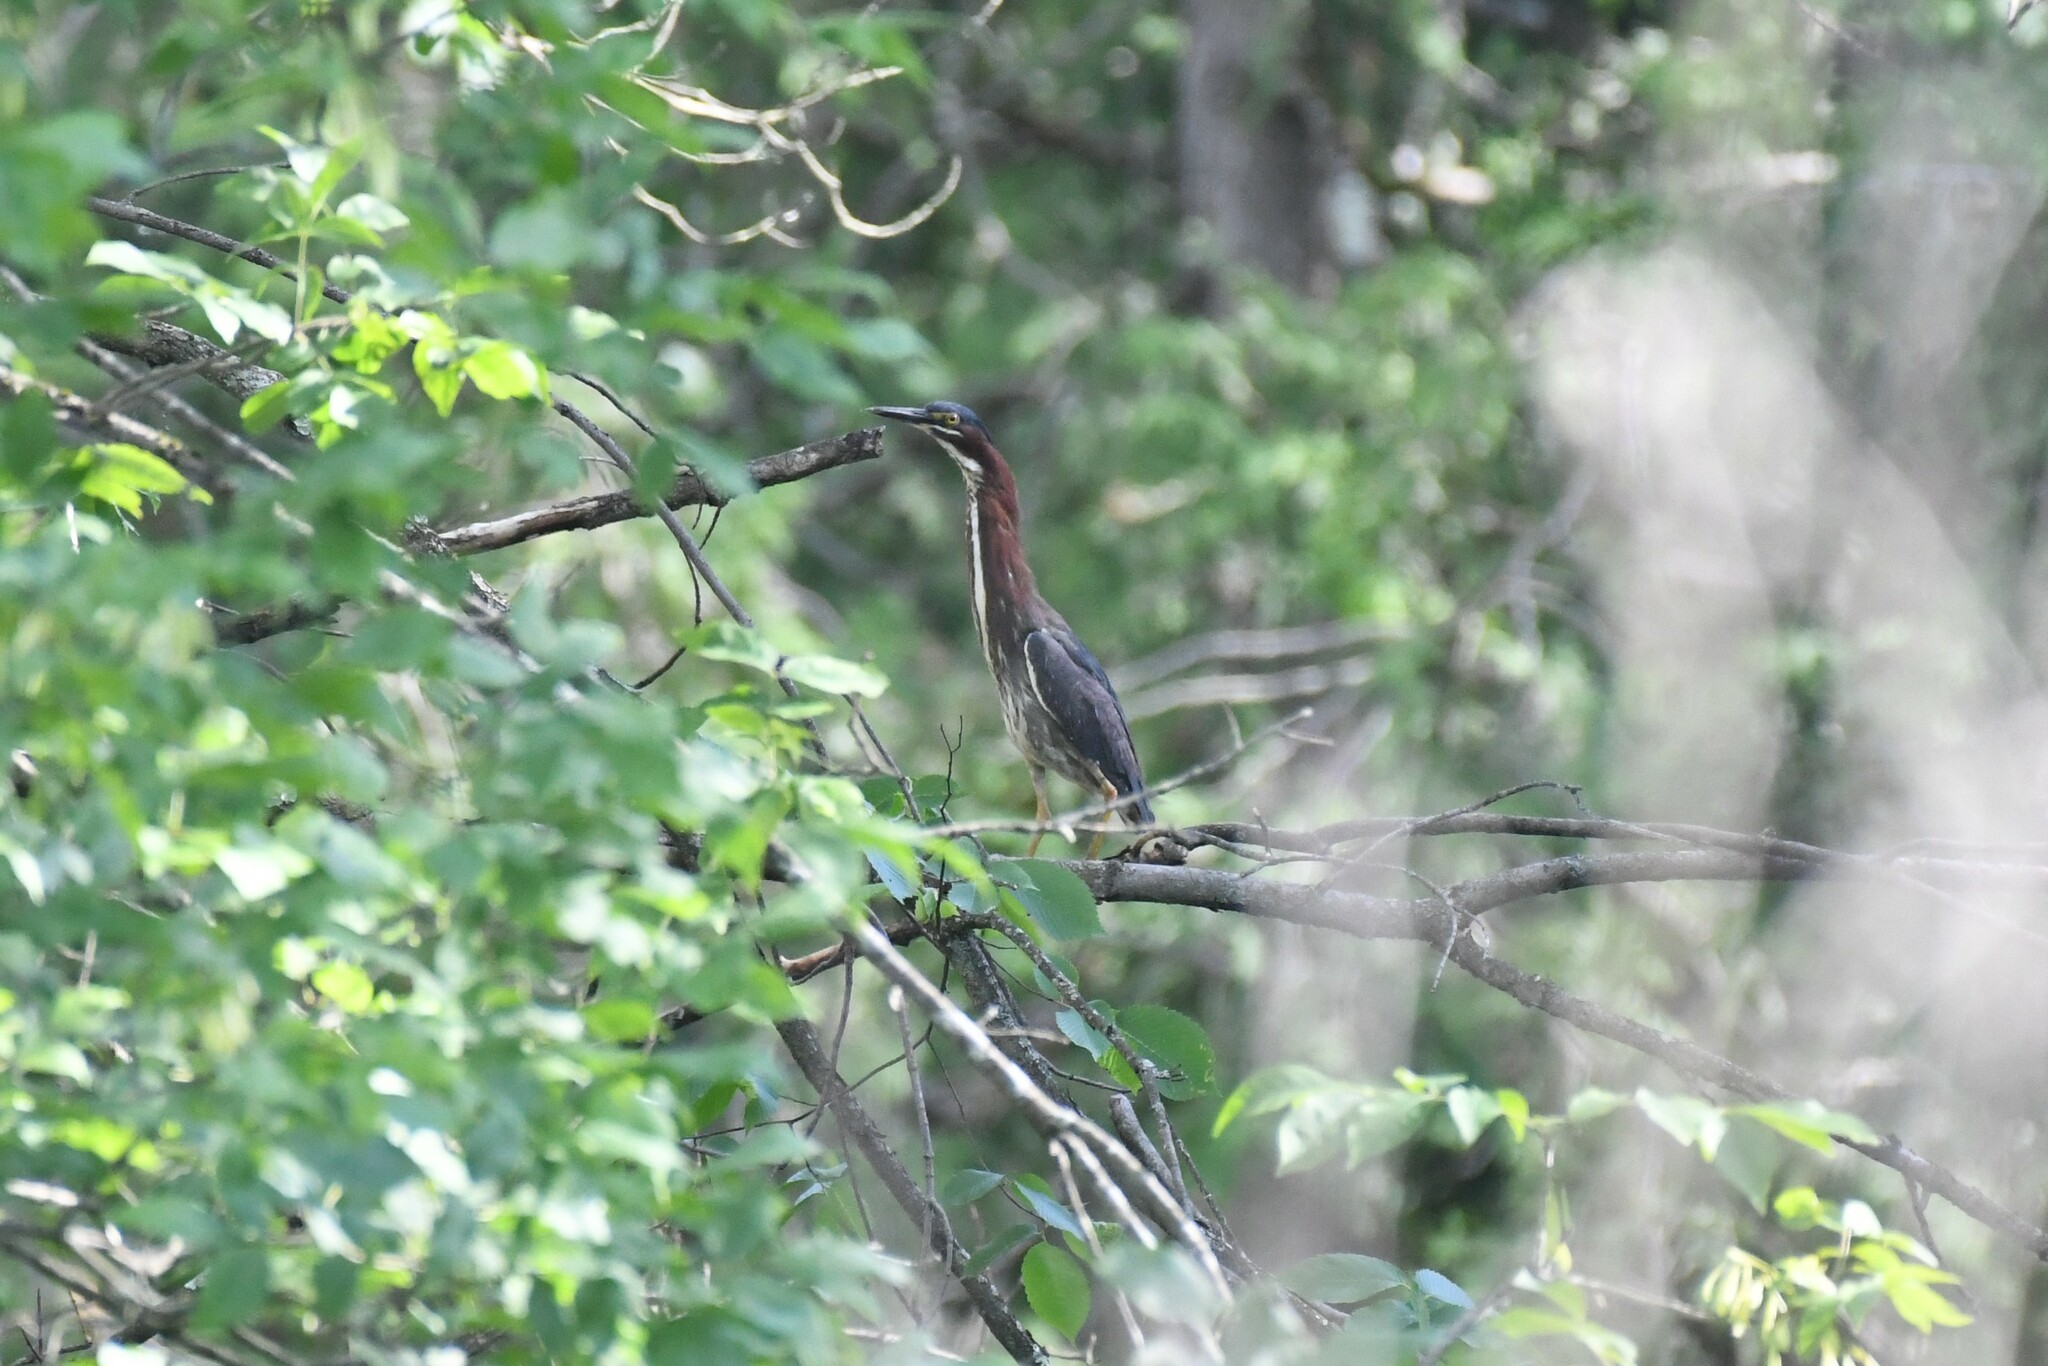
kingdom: Animalia
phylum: Chordata
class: Aves
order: Pelecaniformes
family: Ardeidae
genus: Butorides
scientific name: Butorides virescens
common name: Green heron
